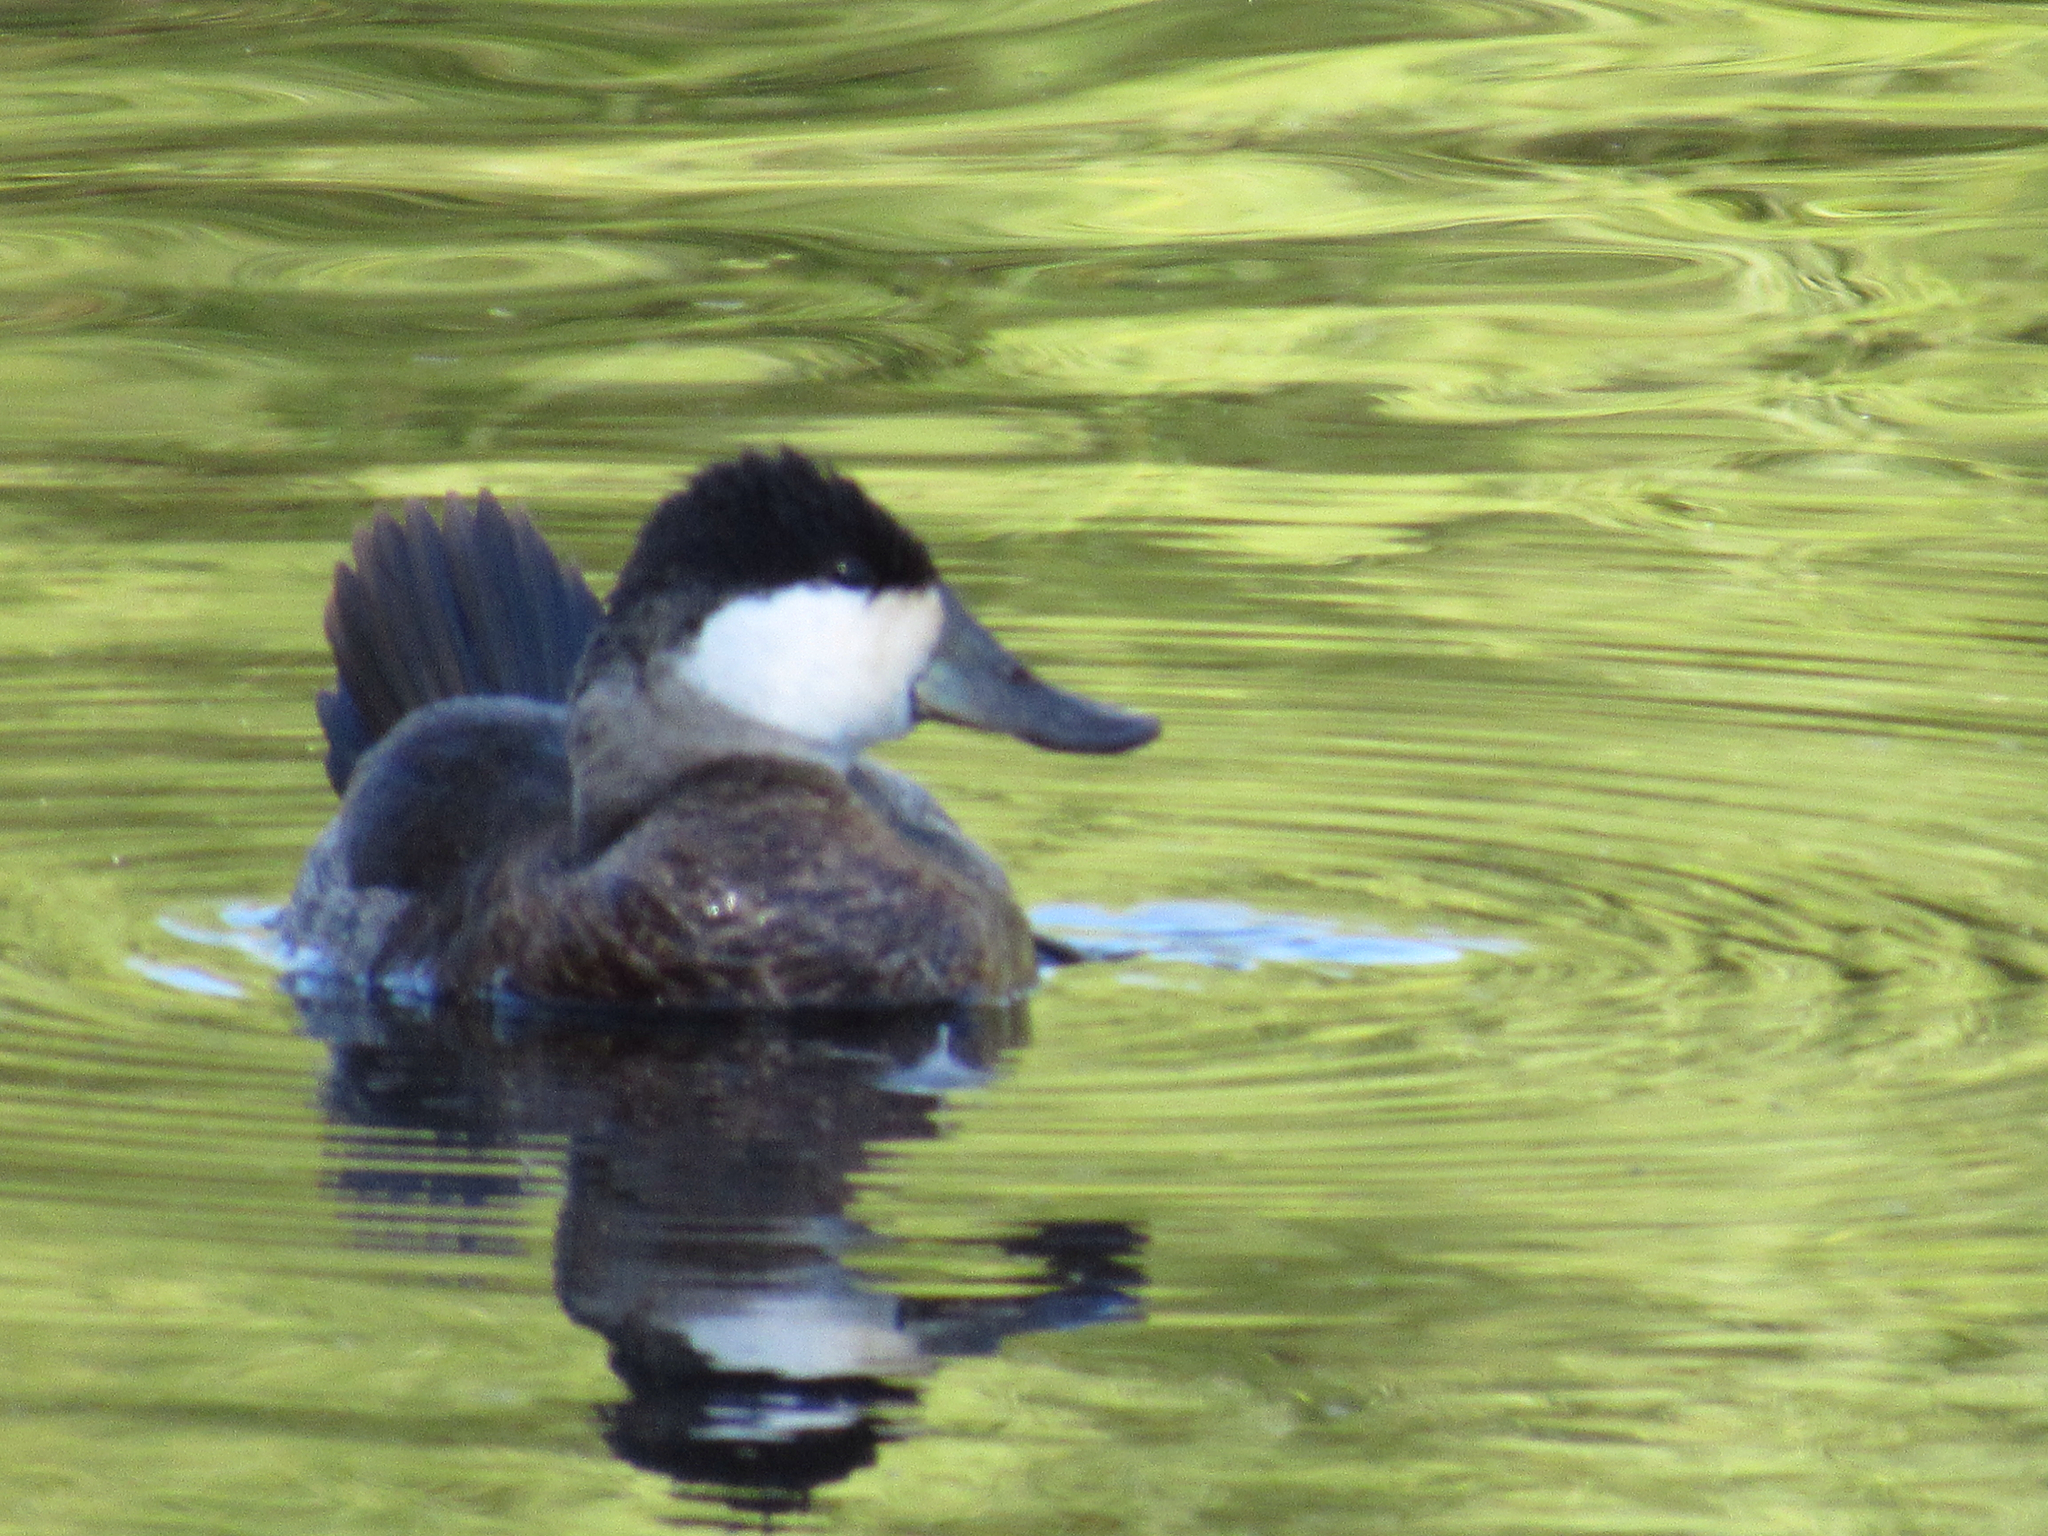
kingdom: Animalia
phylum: Chordata
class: Aves
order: Anseriformes
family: Anatidae
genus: Oxyura
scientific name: Oxyura jamaicensis
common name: Ruddy duck
